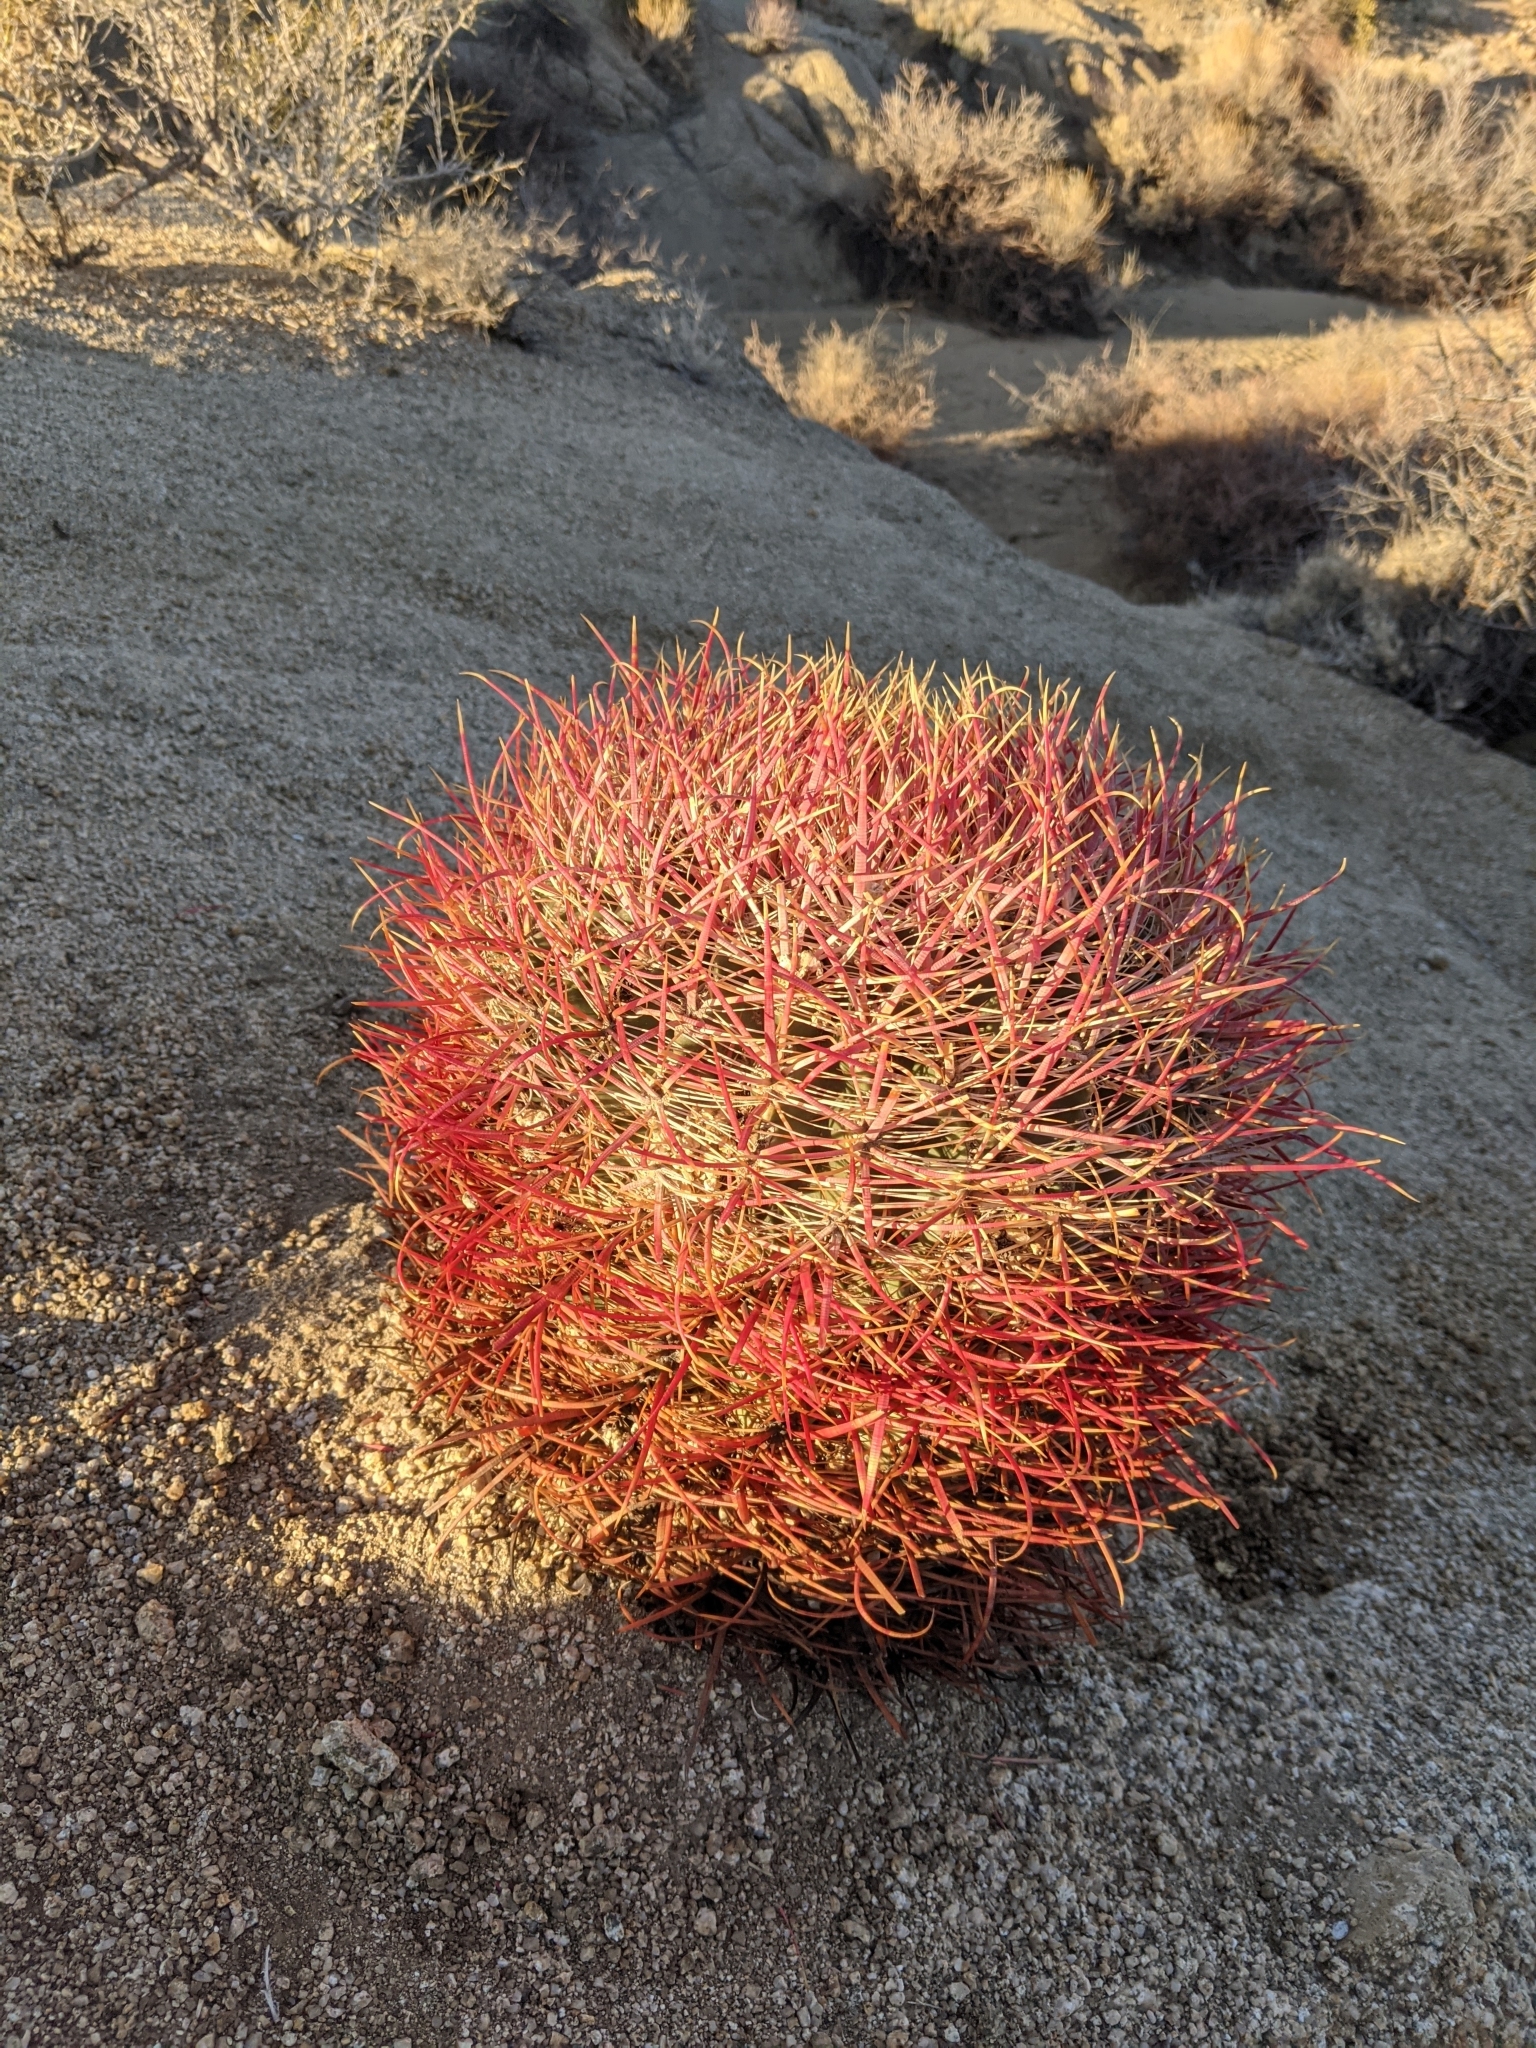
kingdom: Plantae
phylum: Tracheophyta
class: Magnoliopsida
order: Caryophyllales
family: Cactaceae
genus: Ferocactus
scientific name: Ferocactus cylindraceus
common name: California barrel cactus
